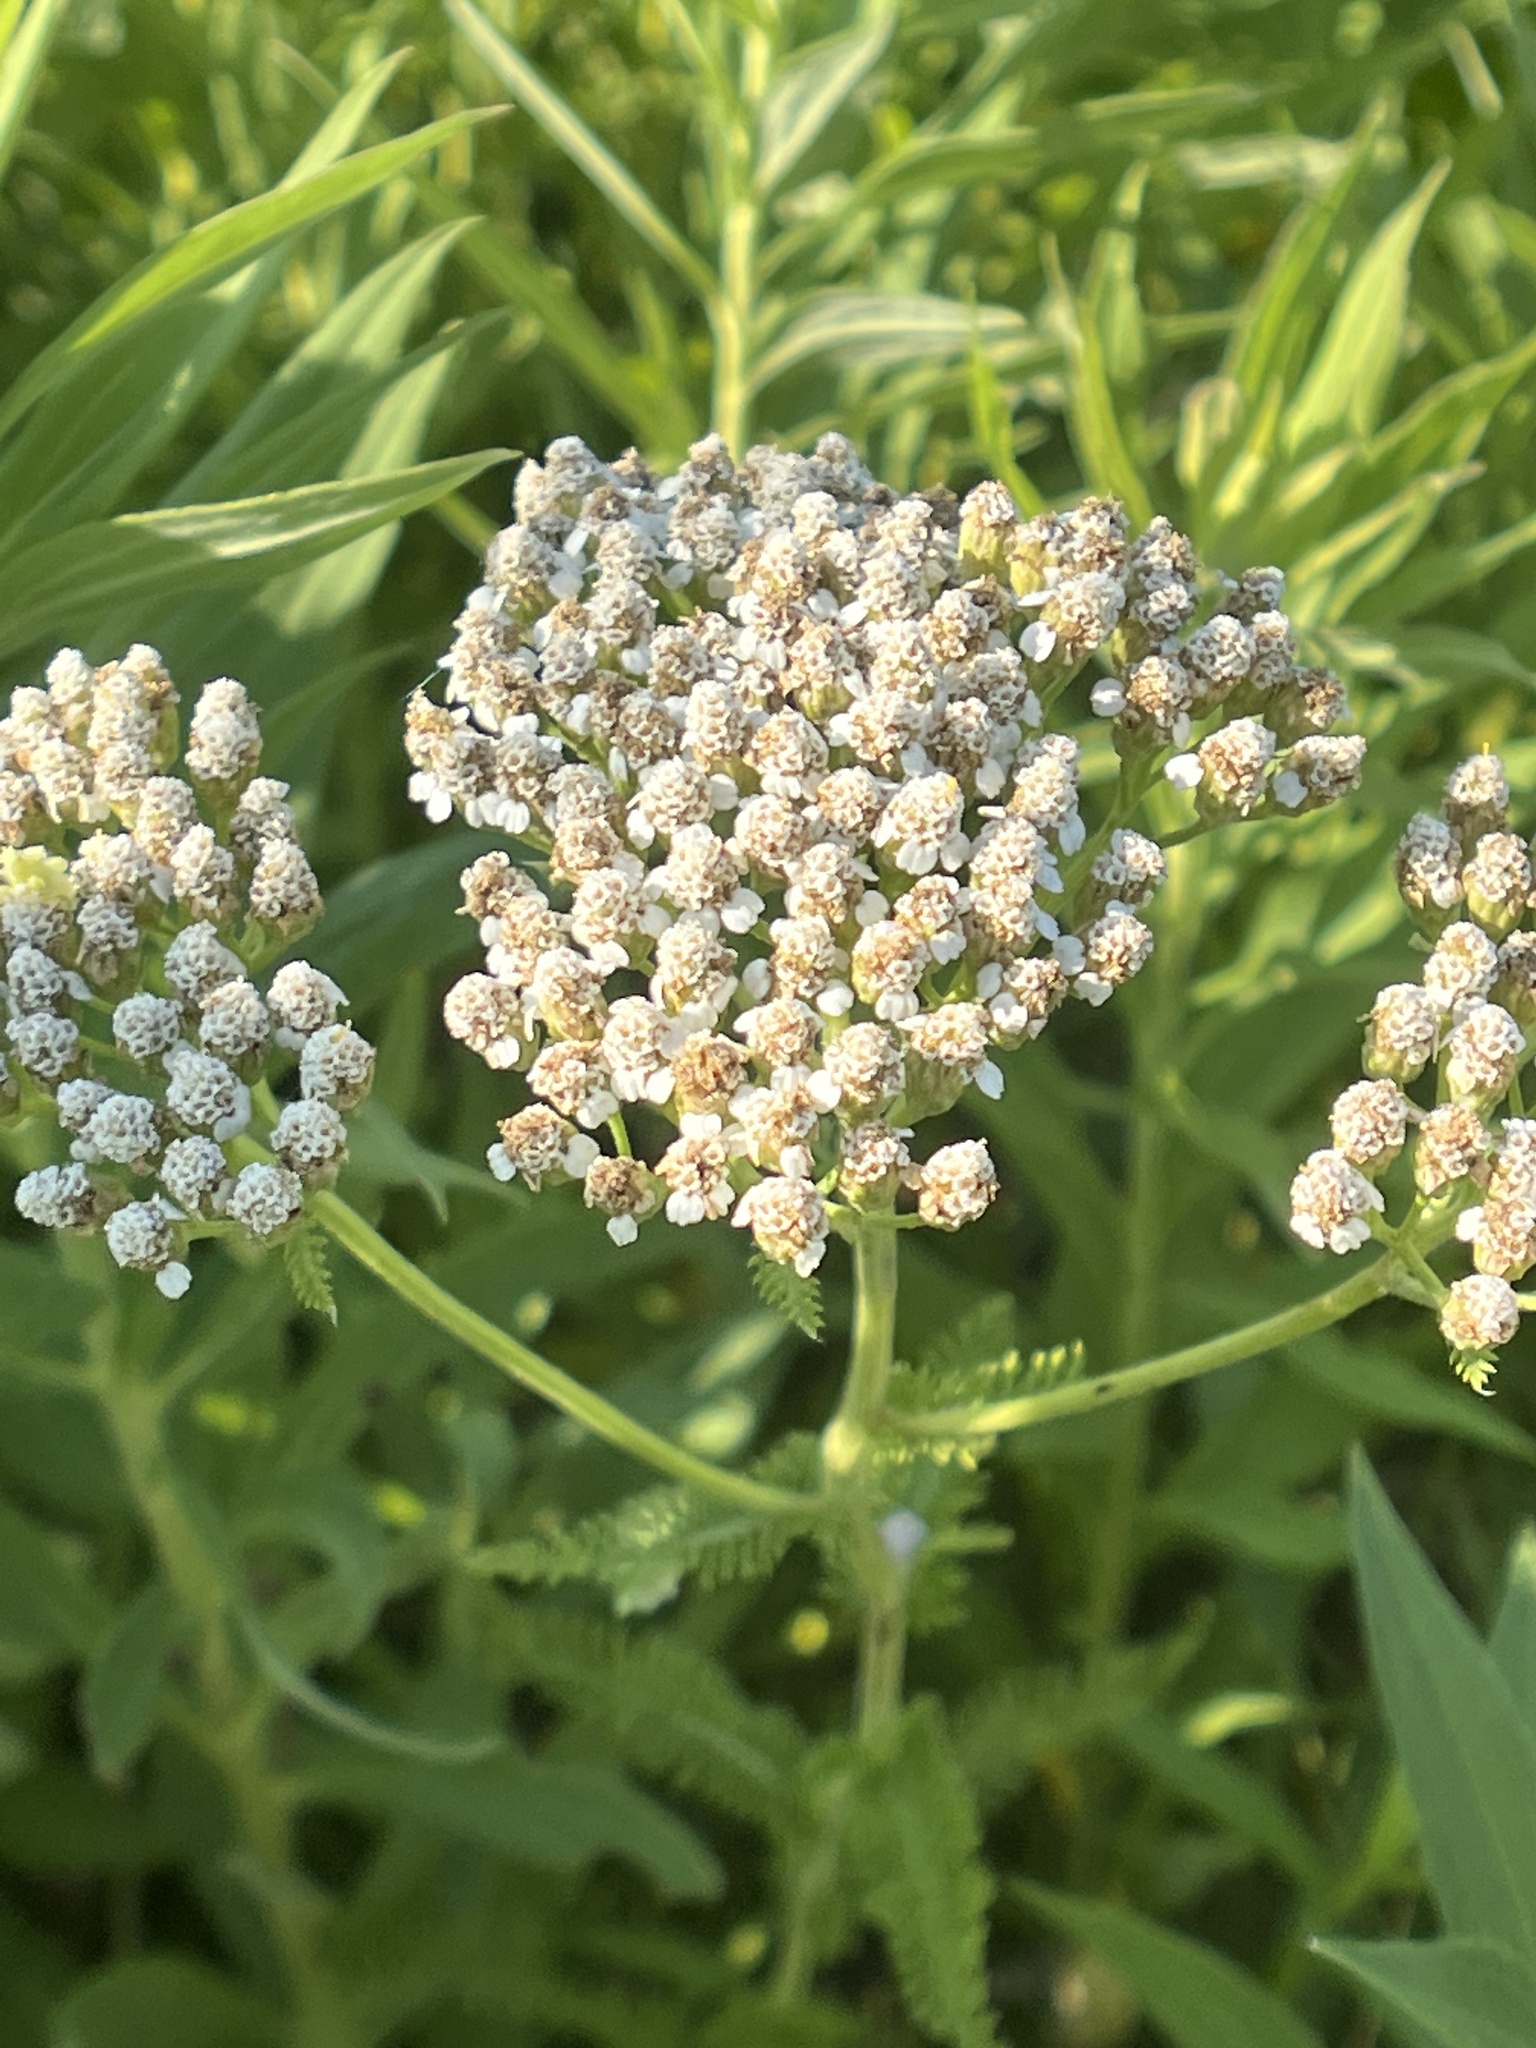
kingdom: Plantae
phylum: Tracheophyta
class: Magnoliopsida
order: Asterales
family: Asteraceae
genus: Achillea
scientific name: Achillea millefolium
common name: Yarrow
